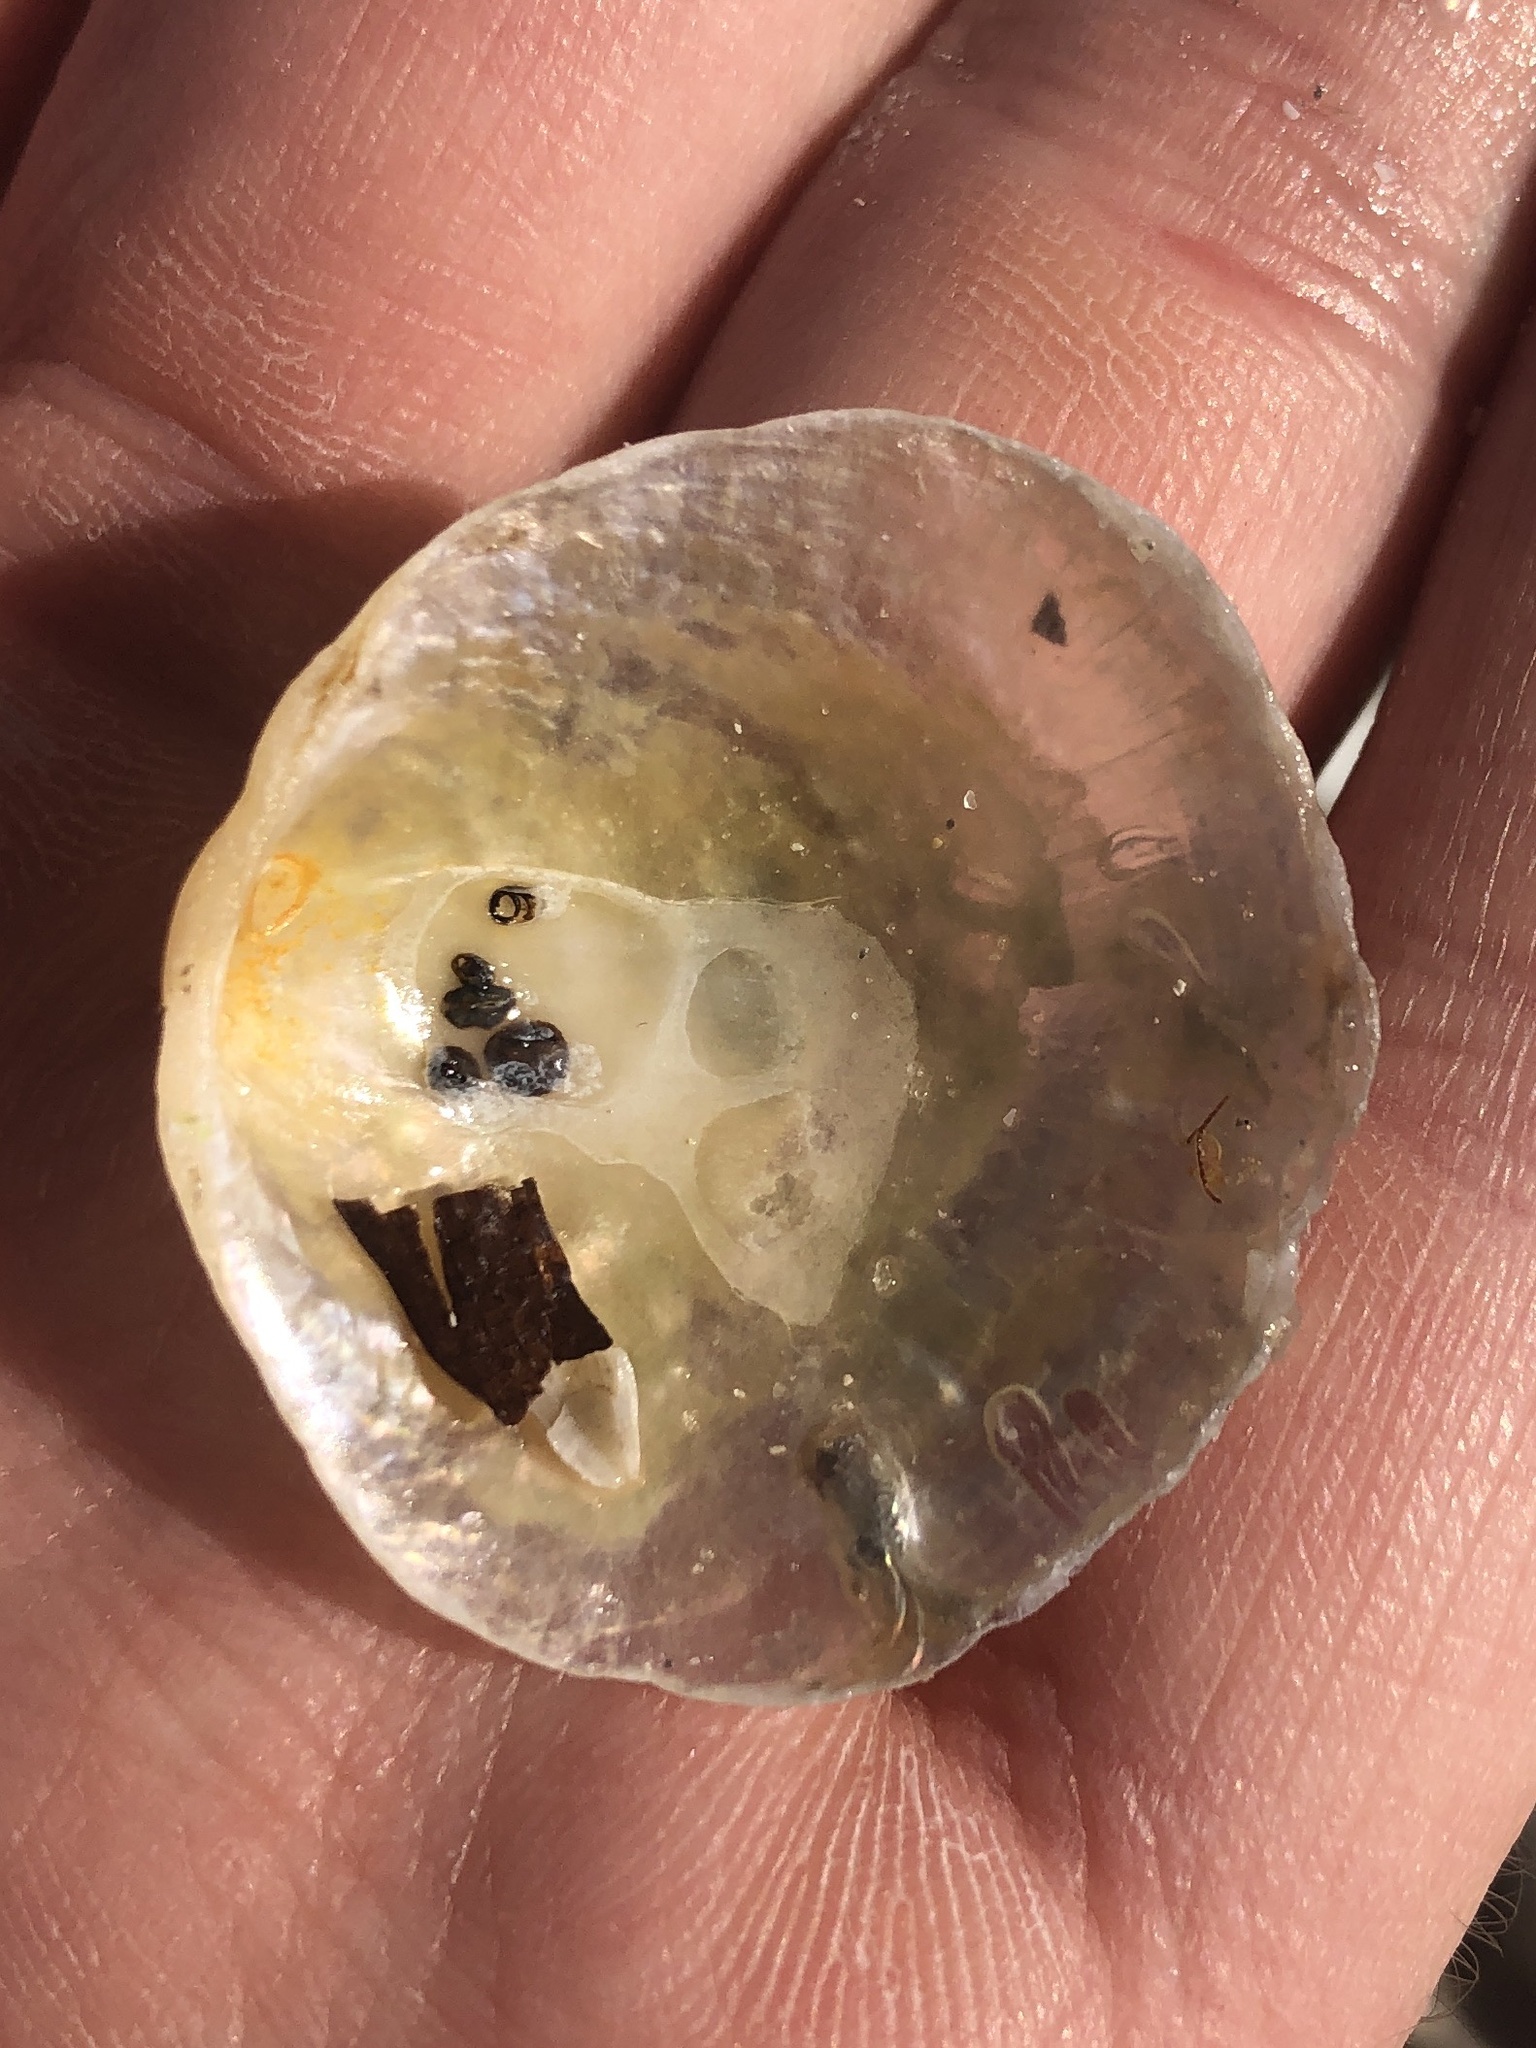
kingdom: Animalia
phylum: Mollusca
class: Bivalvia
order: Pectinida
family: Anomiidae
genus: Anomia
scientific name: Anomia simplex
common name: Common jingle shell
